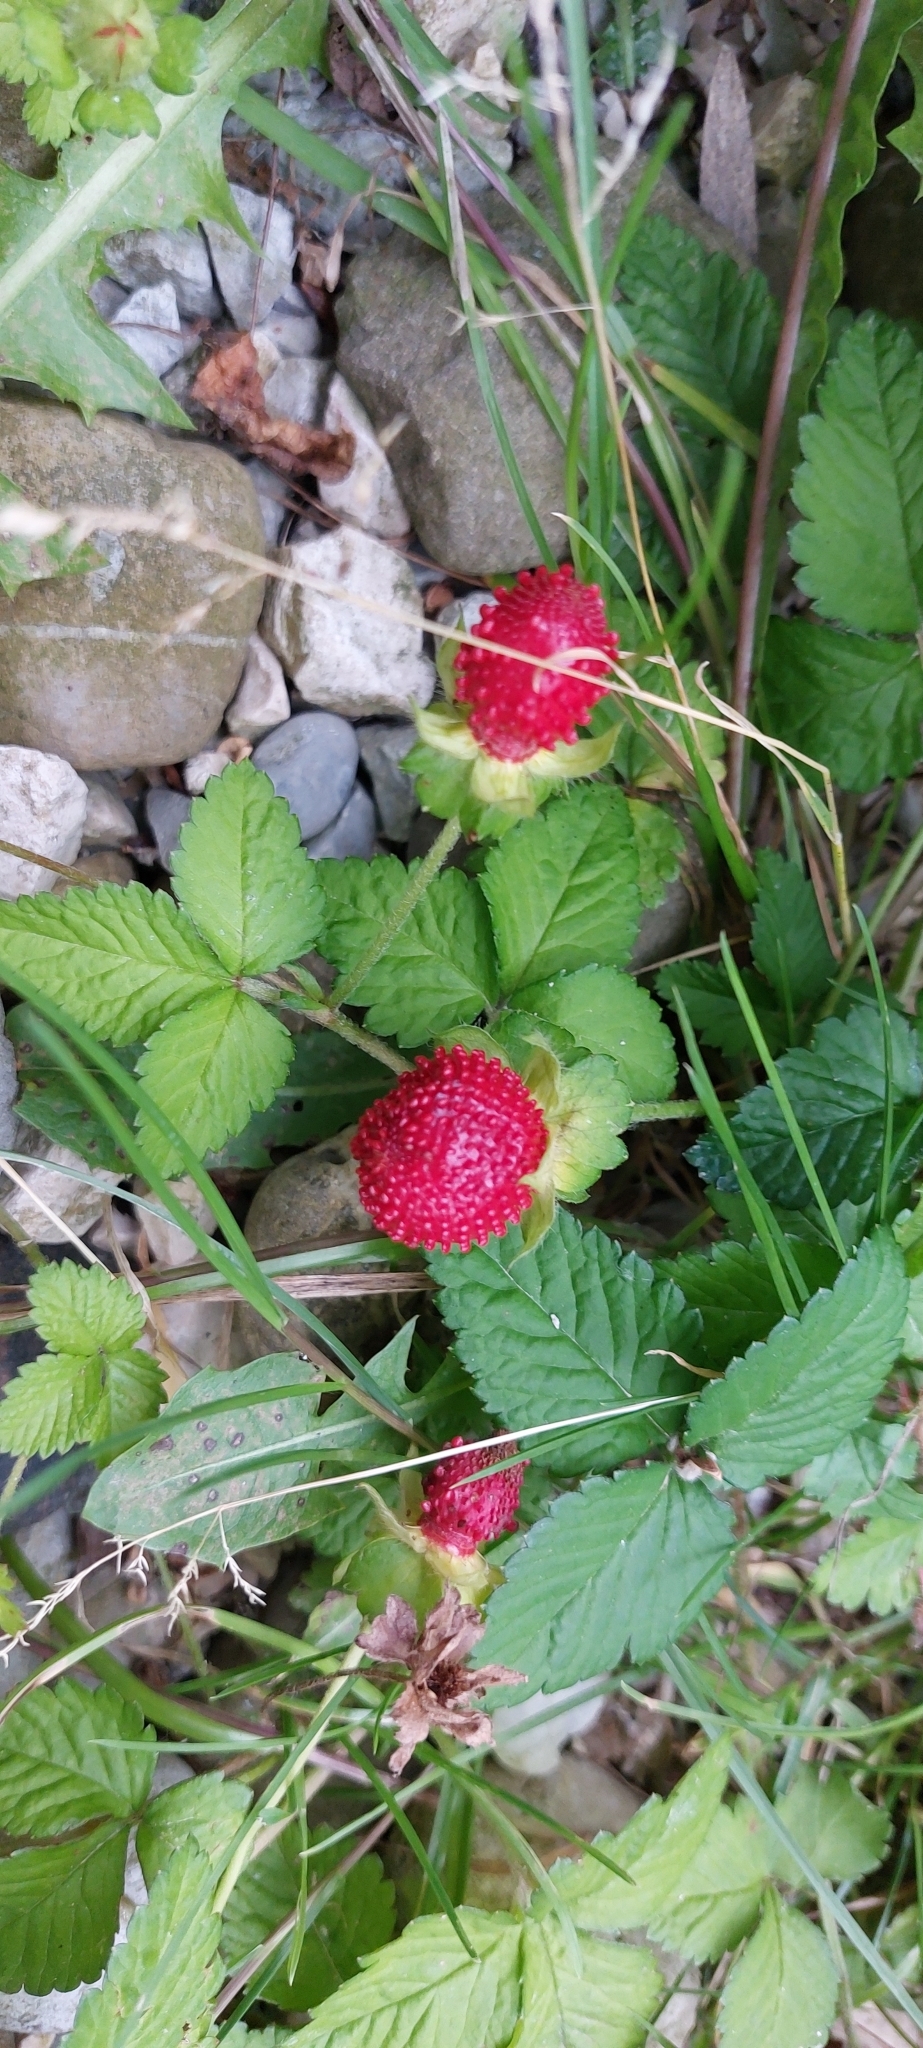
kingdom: Plantae
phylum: Tracheophyta
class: Magnoliopsida
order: Rosales
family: Rosaceae
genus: Potentilla
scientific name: Potentilla indica
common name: Yellow-flowered strawberry
